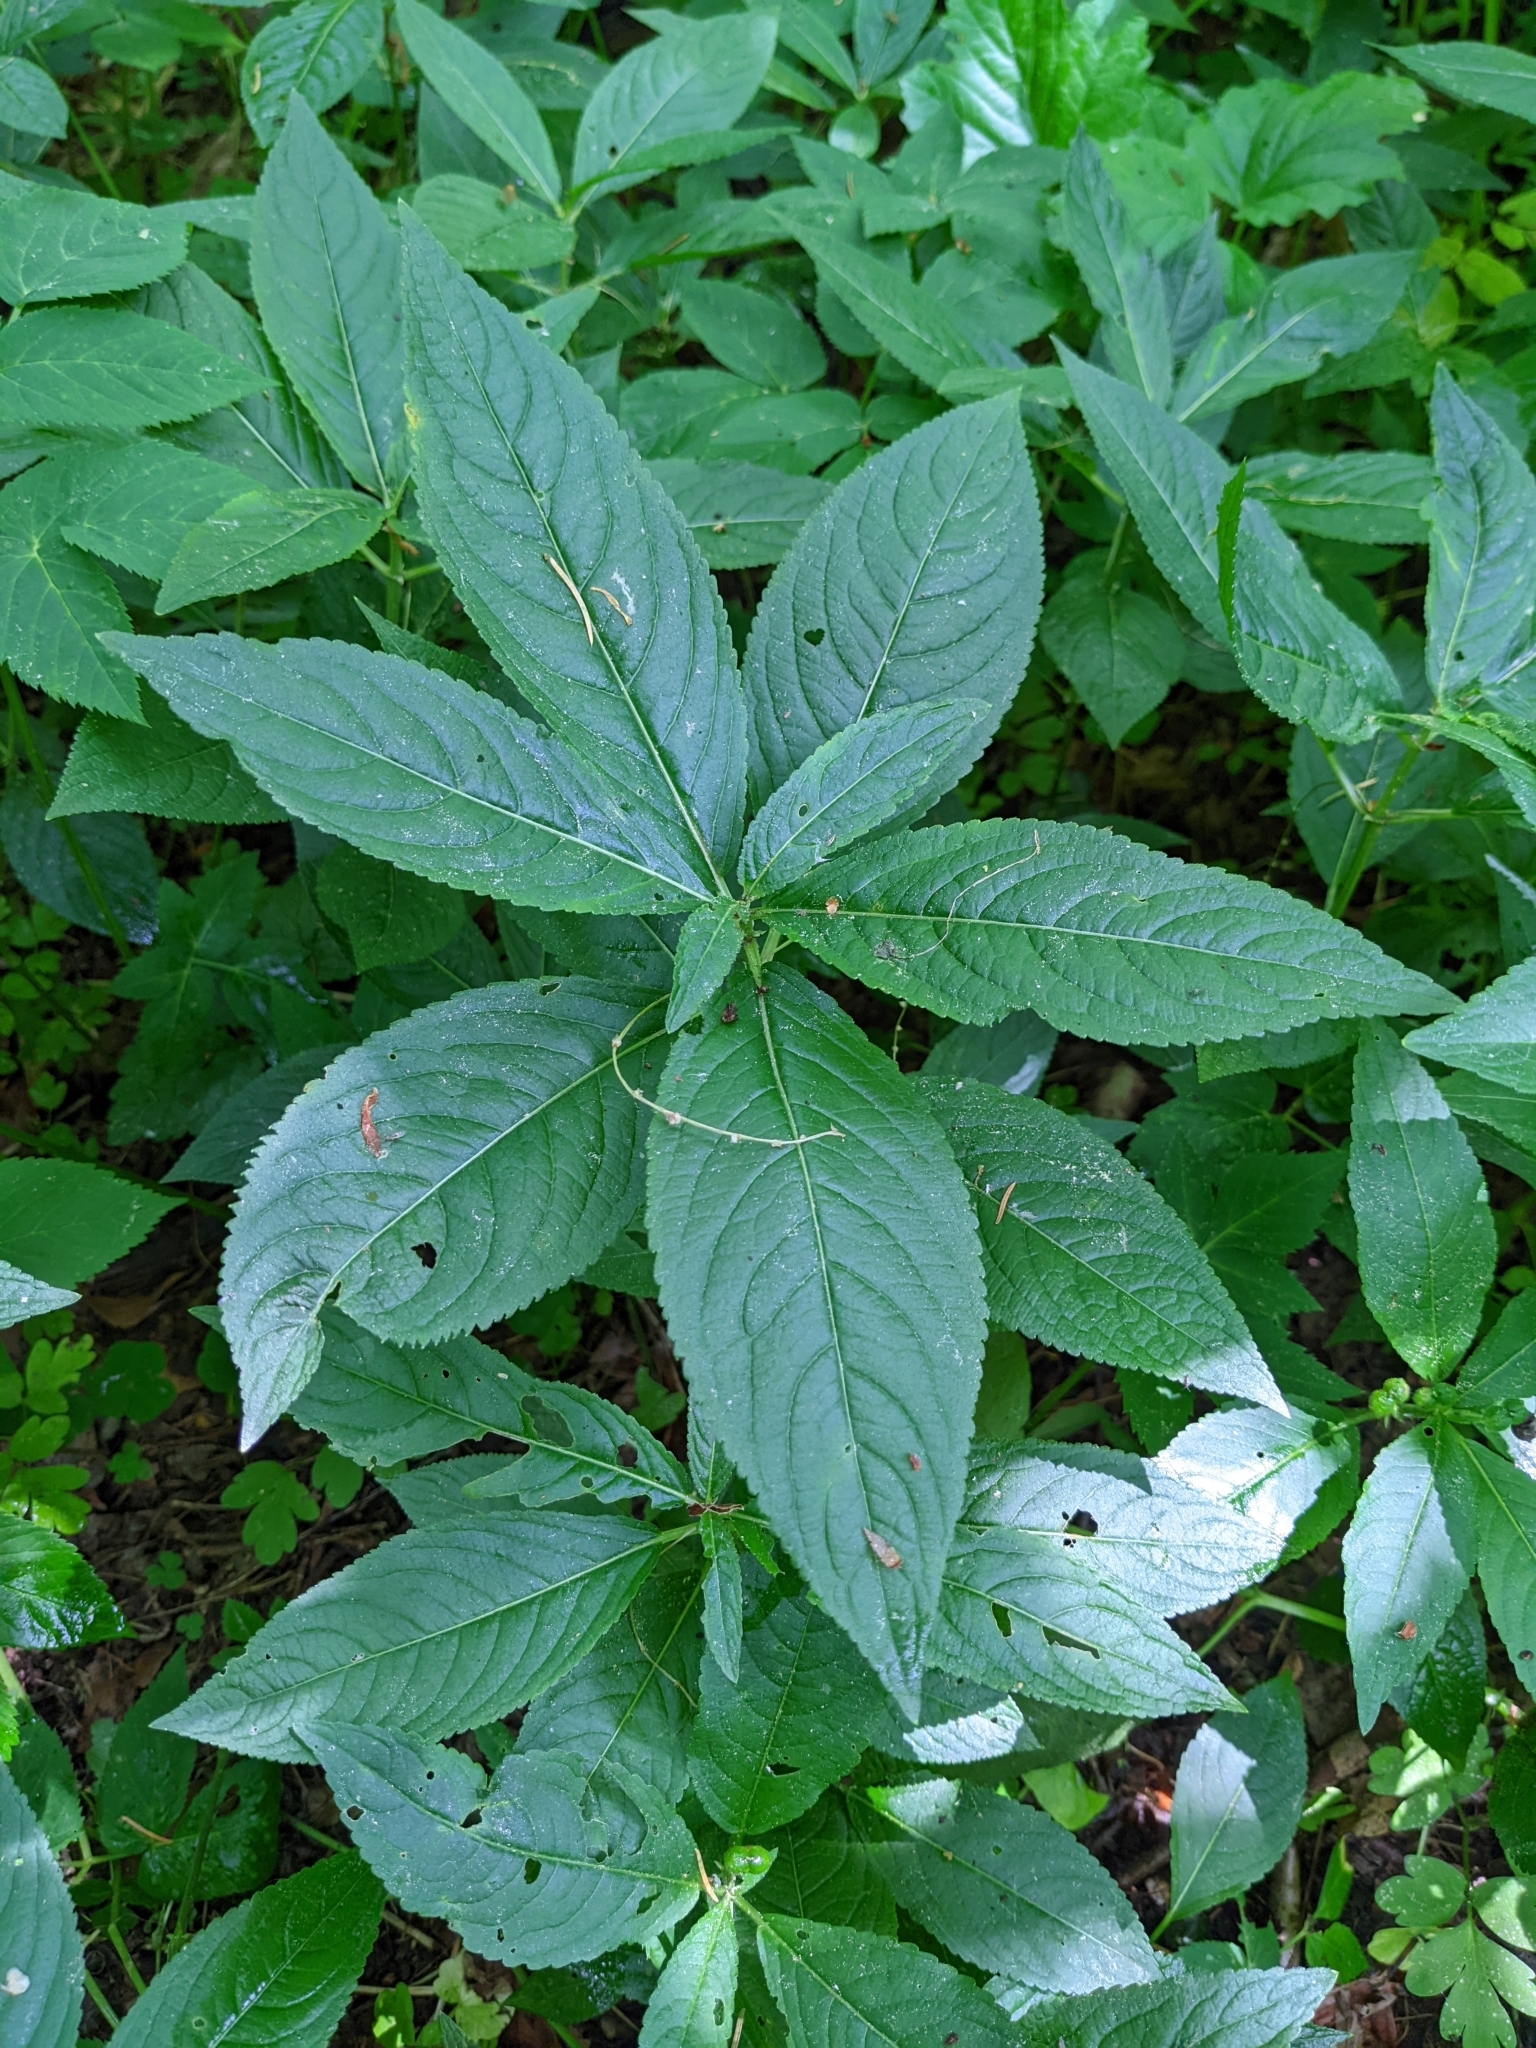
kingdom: Plantae
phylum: Tracheophyta
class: Magnoliopsida
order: Malpighiales
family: Euphorbiaceae
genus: Mercurialis
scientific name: Mercurialis perennis
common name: Dog mercury
